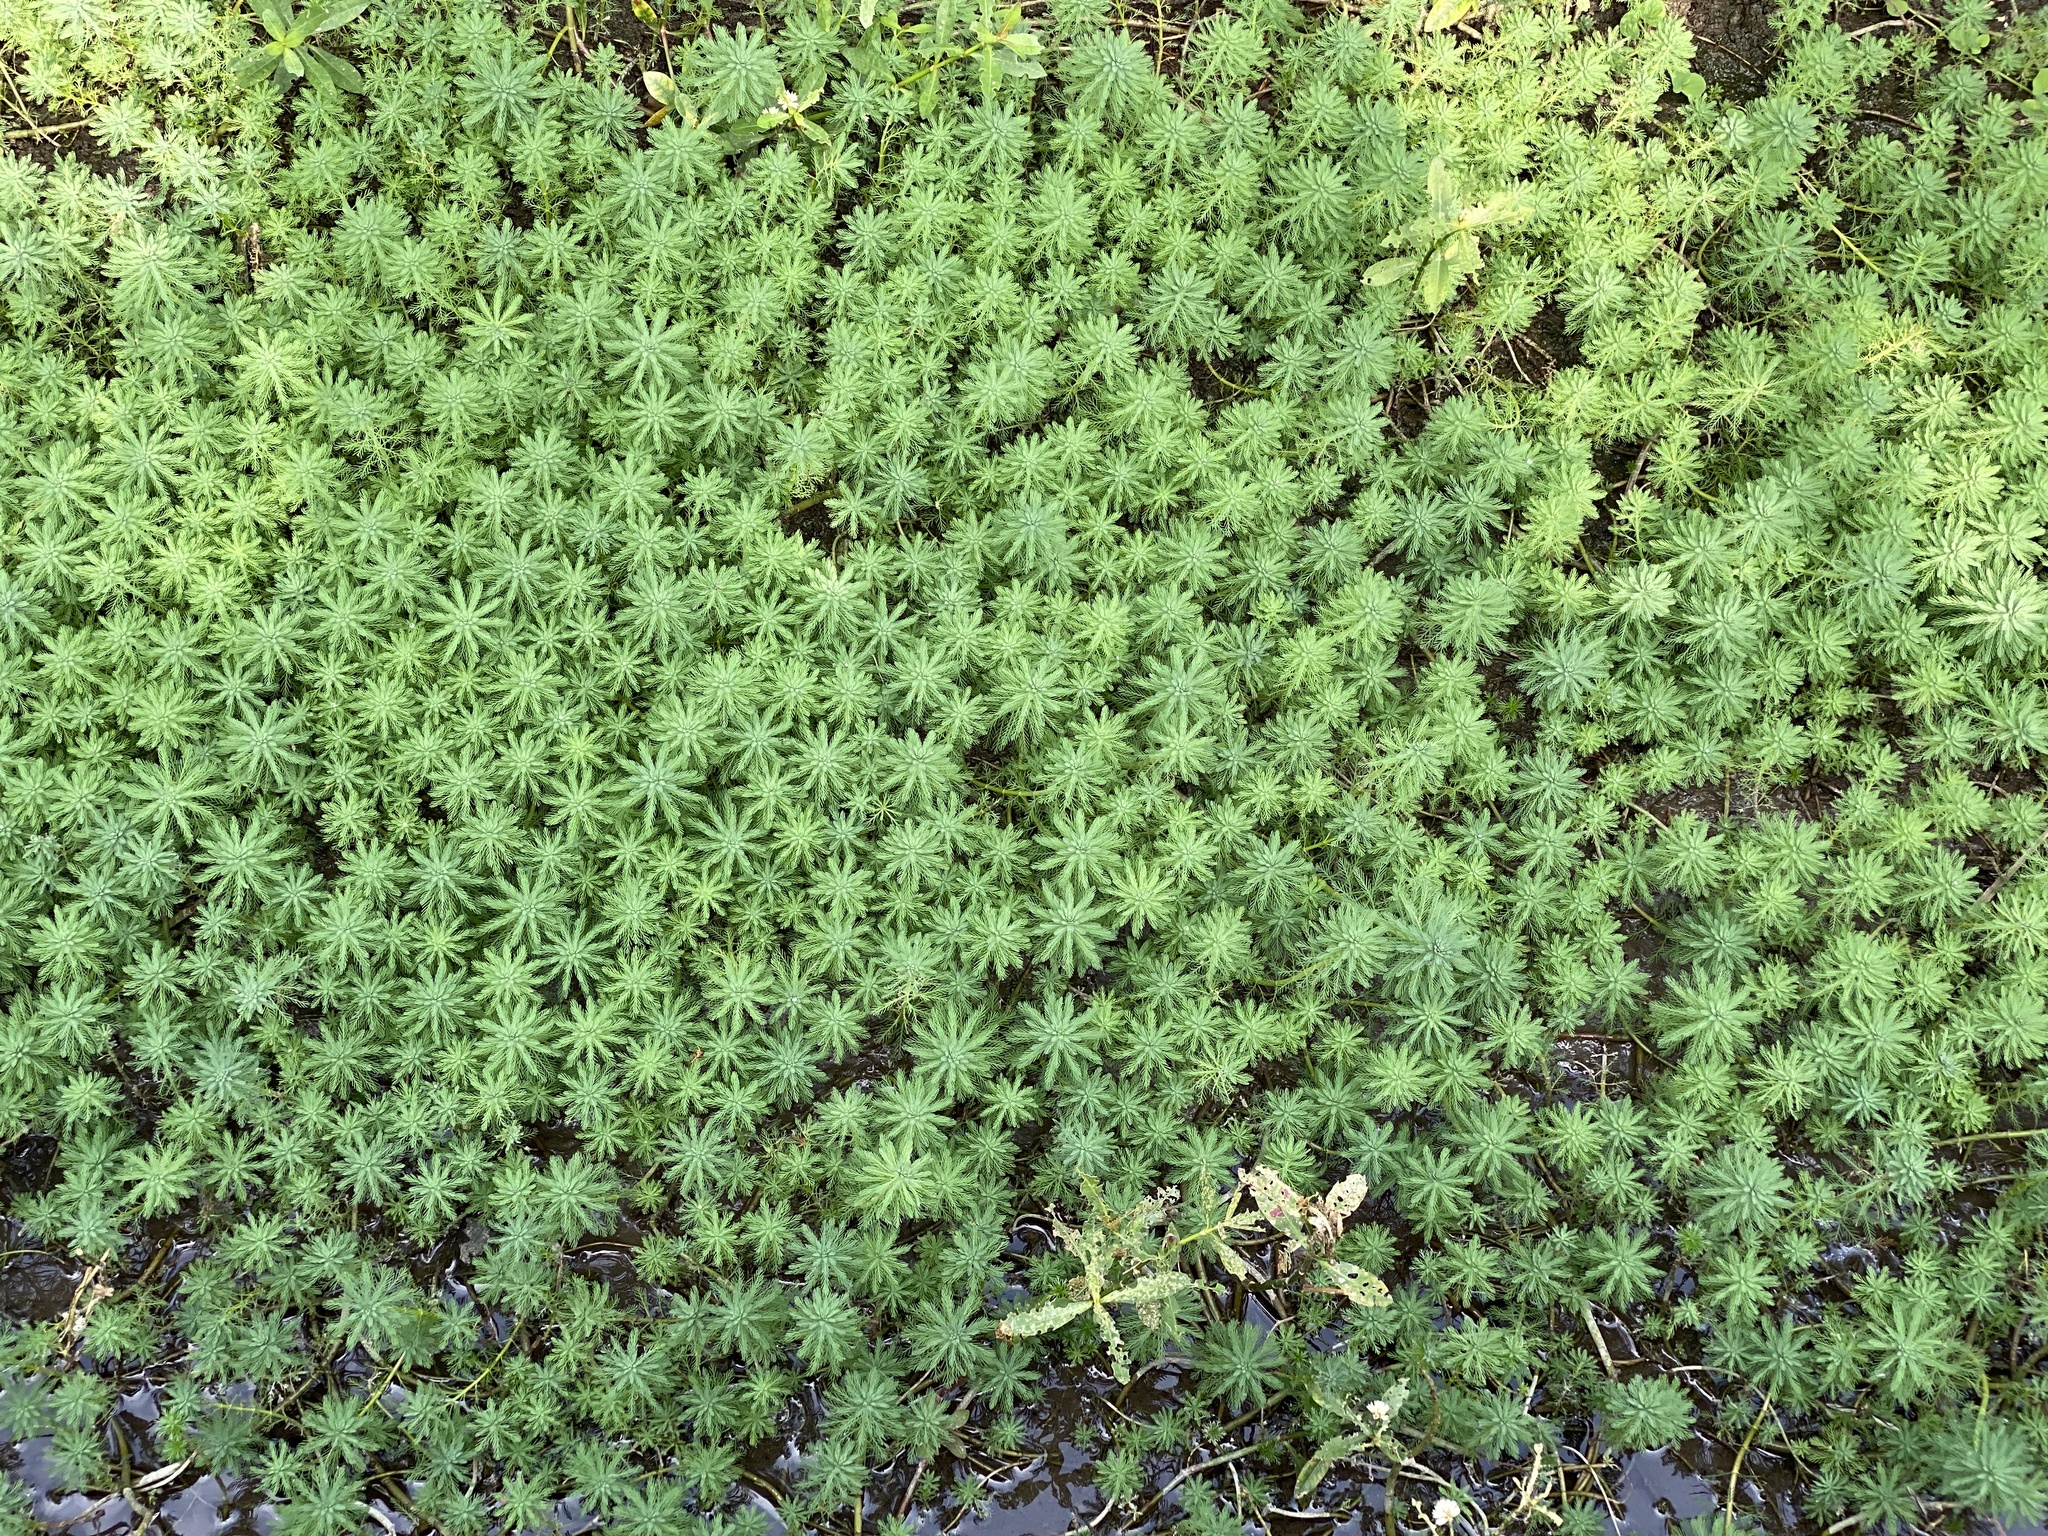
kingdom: Plantae
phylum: Tracheophyta
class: Magnoliopsida
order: Saxifragales
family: Haloragaceae
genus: Myriophyllum
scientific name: Myriophyllum aquaticum
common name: Parrot's feather
